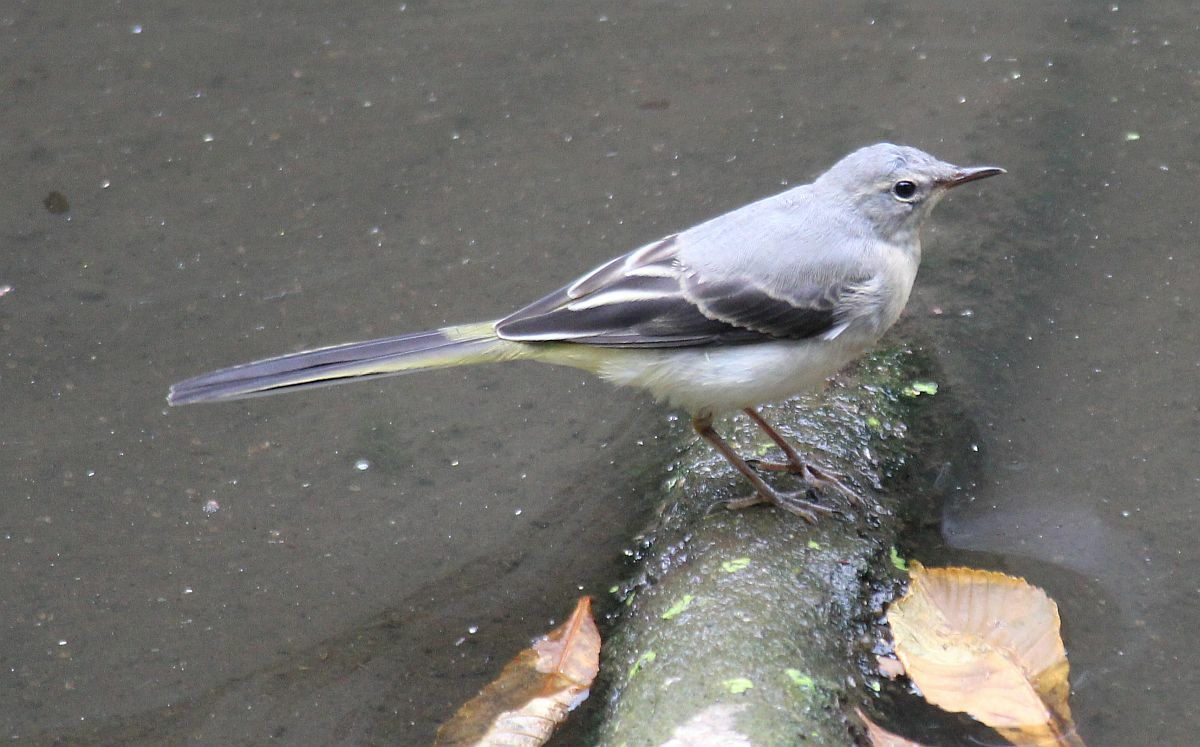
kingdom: Animalia
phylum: Chordata
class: Aves
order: Passeriformes
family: Motacillidae
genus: Motacilla
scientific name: Motacilla cinerea
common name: Grey wagtail
